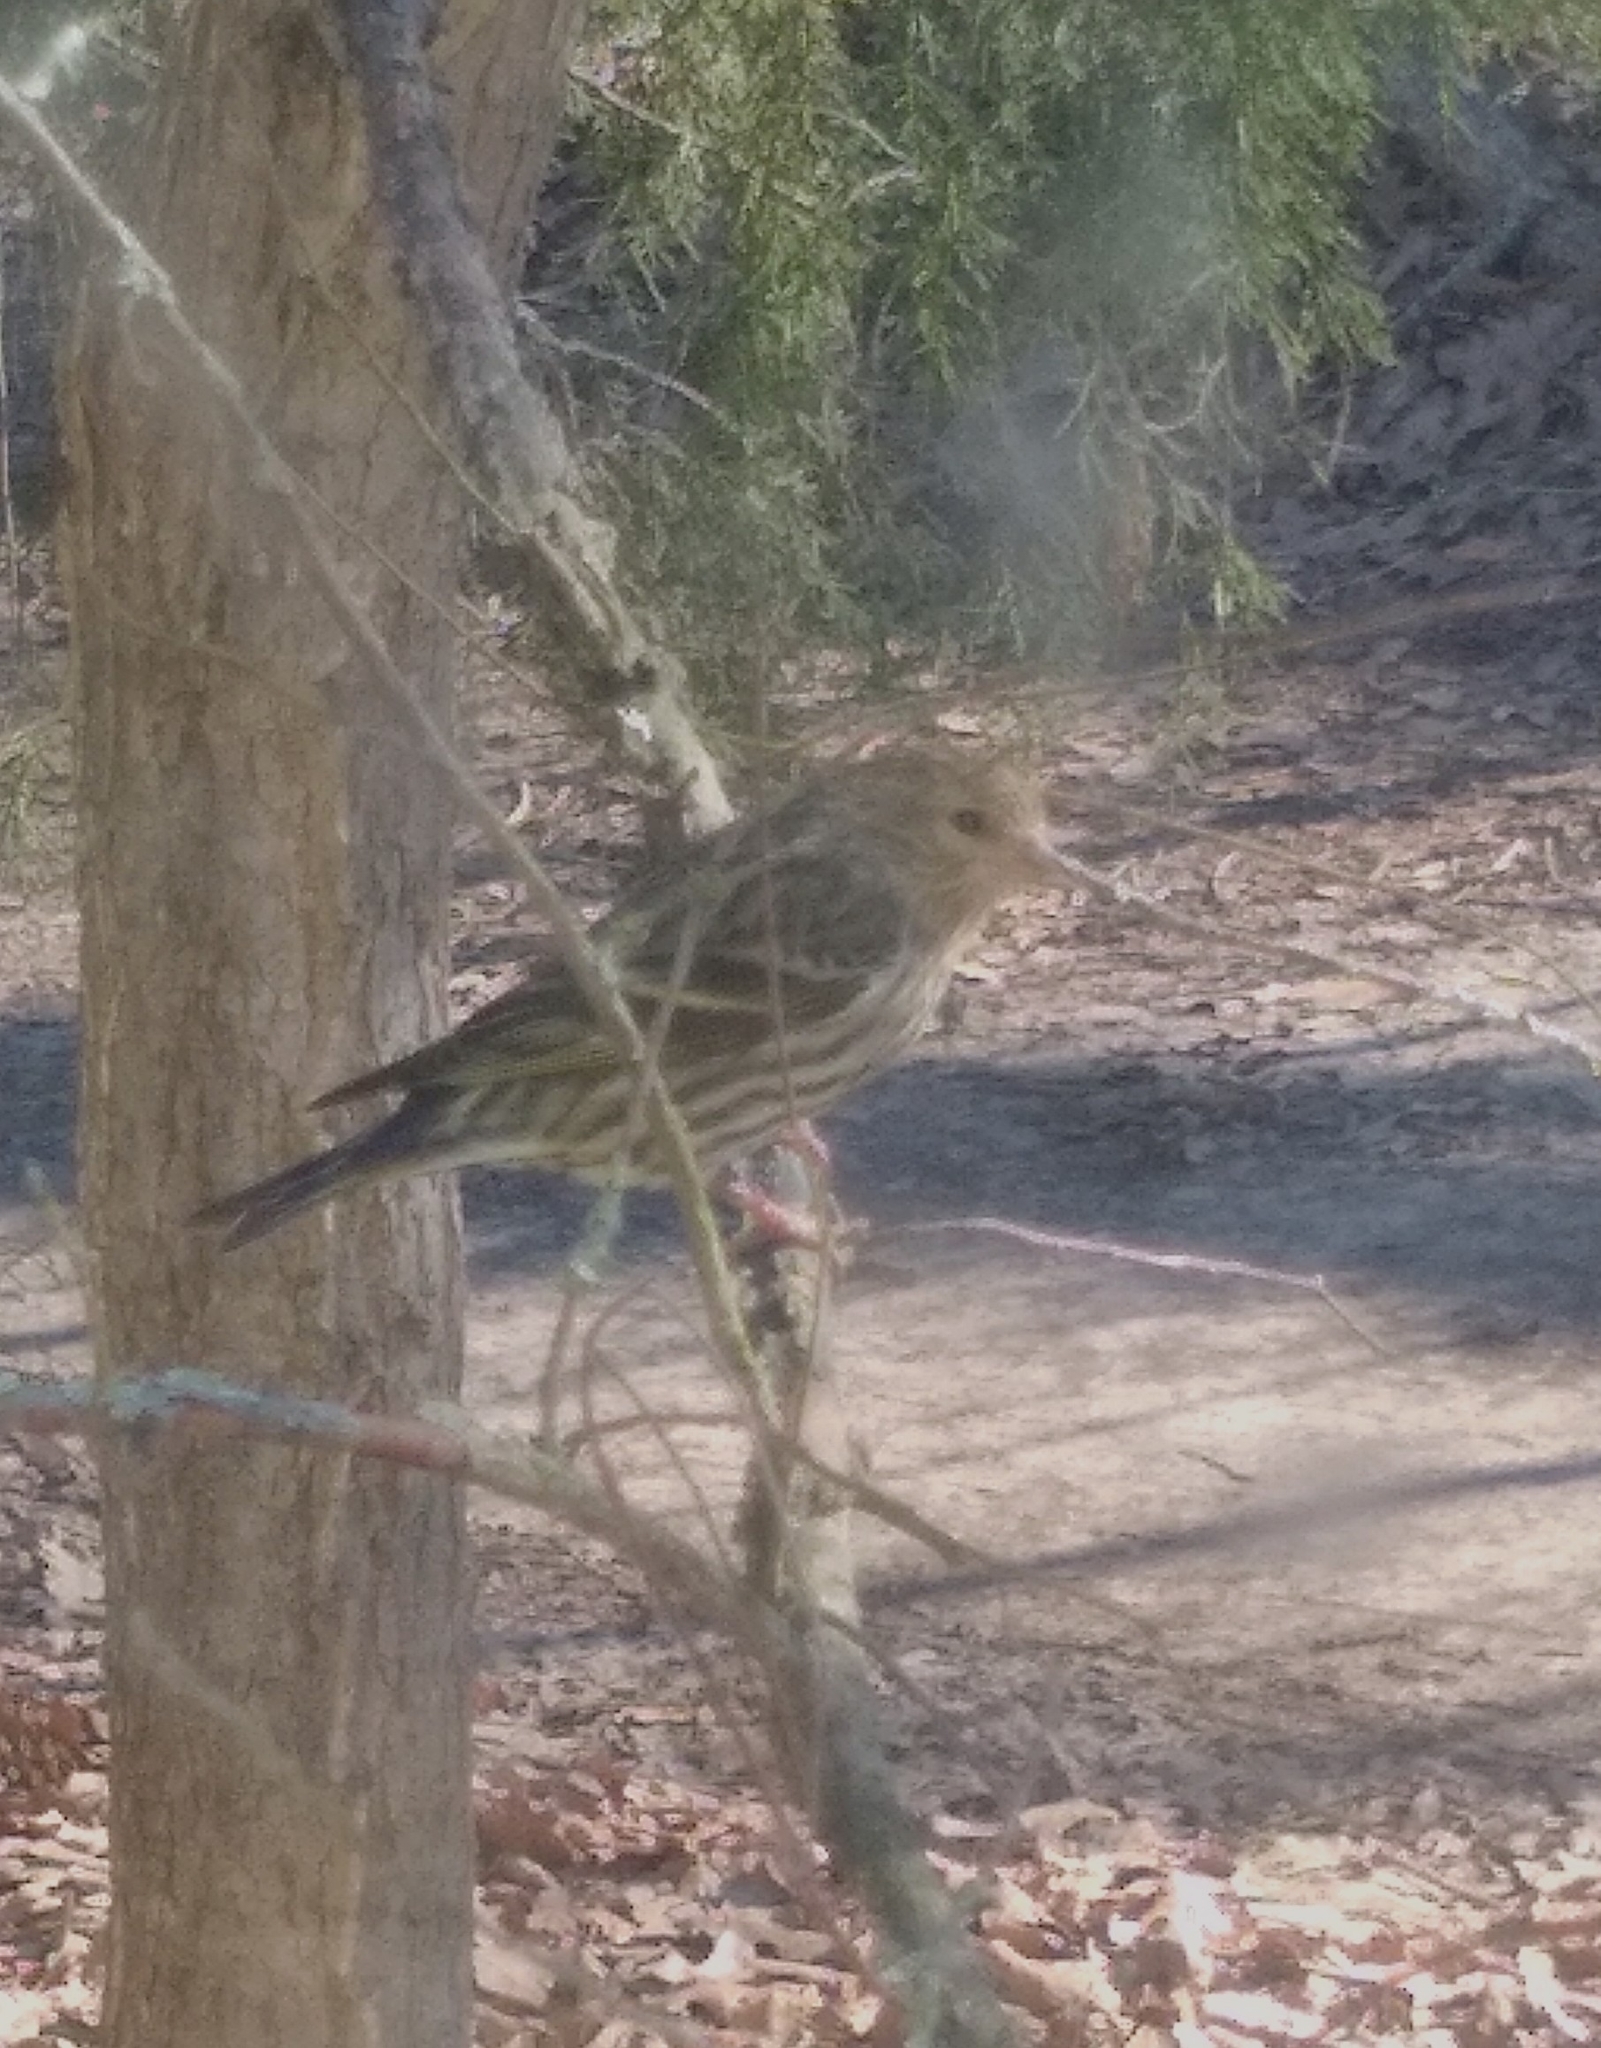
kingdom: Animalia
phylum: Chordata
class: Aves
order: Passeriformes
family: Fringillidae
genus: Spinus
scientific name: Spinus pinus
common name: Pine siskin
